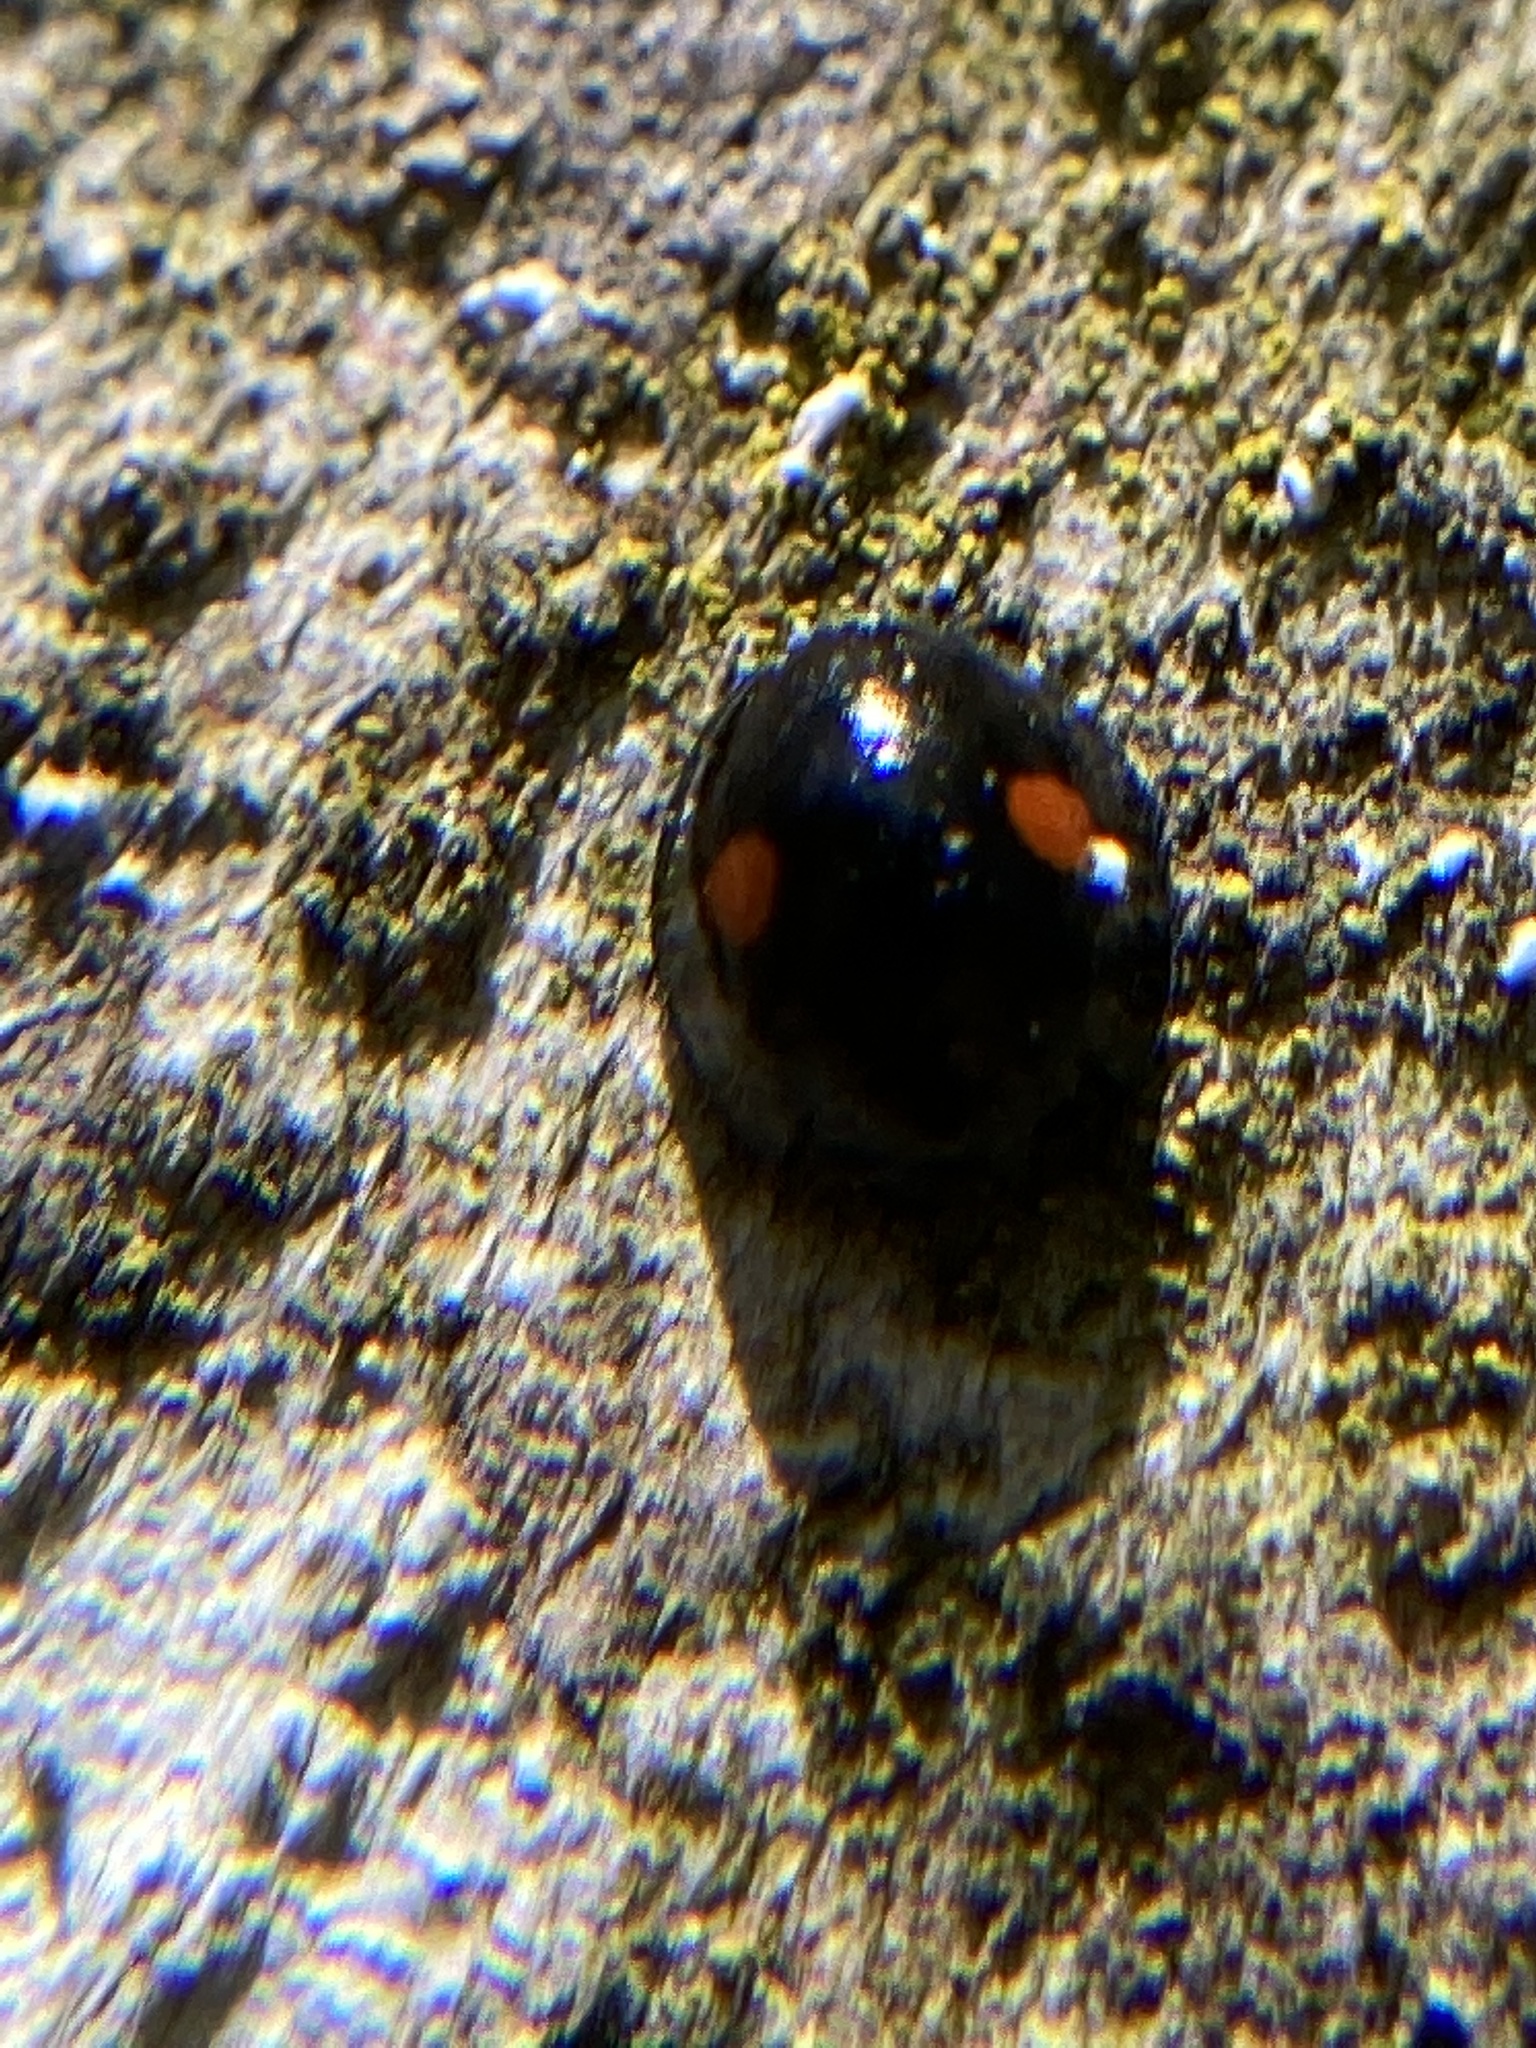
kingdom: Animalia
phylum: Arthropoda
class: Insecta
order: Coleoptera
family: Coccinellidae
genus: Chilocorus
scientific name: Chilocorus stigma
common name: Twicestabbed lady beetle
